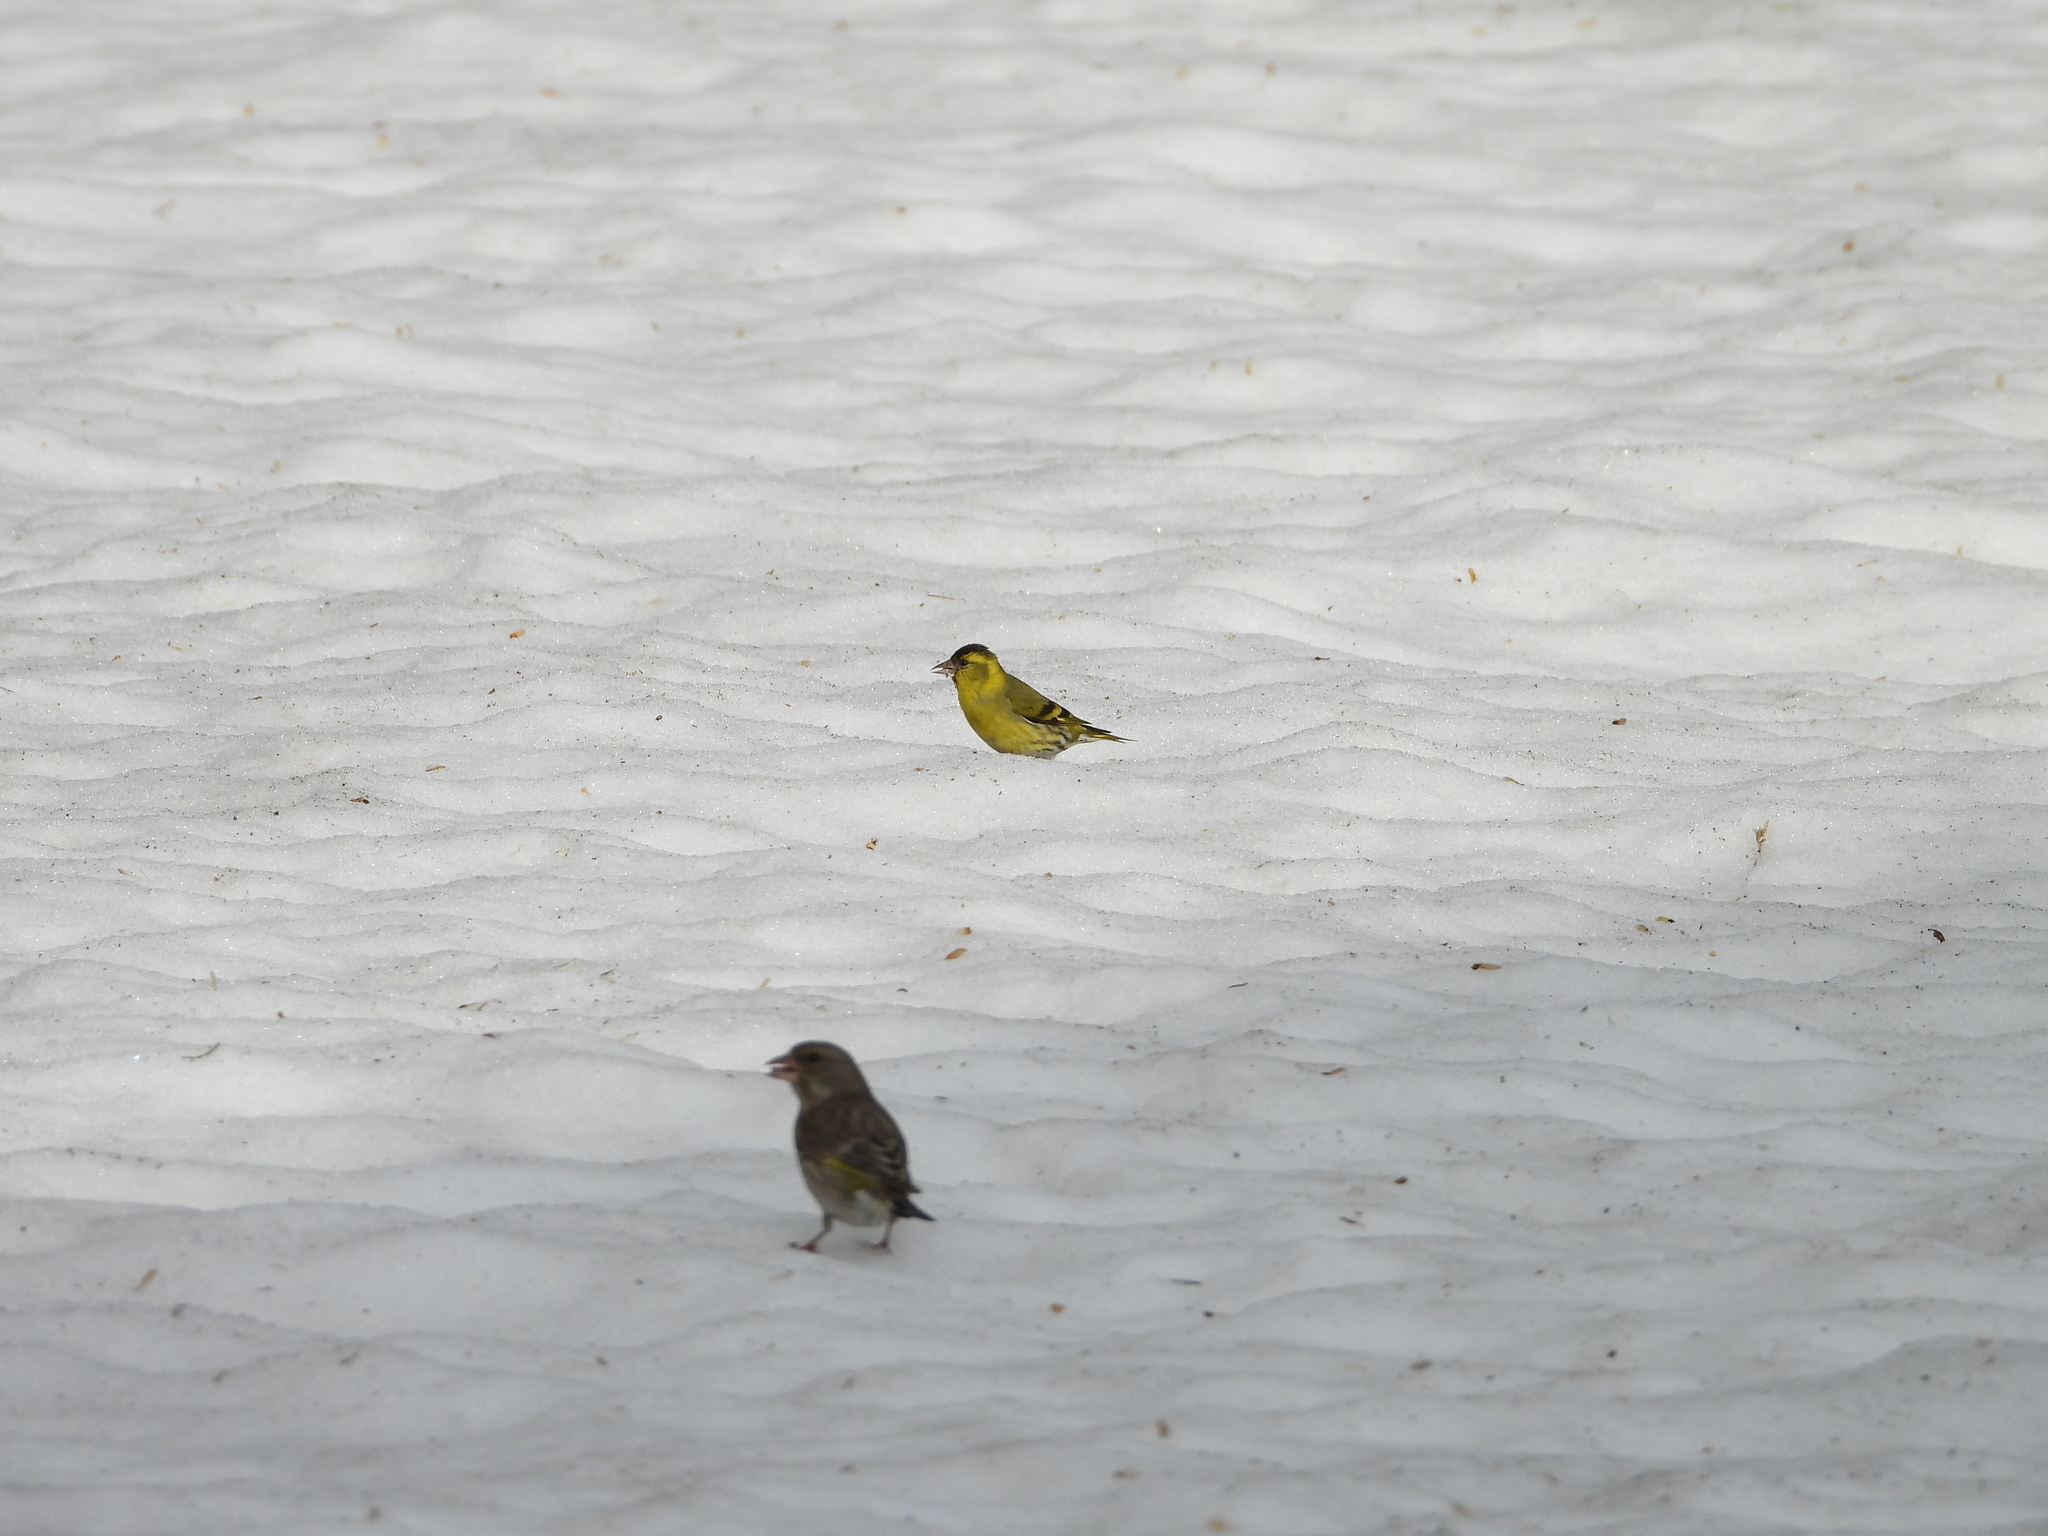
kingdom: Animalia
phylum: Chordata
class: Aves
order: Passeriformes
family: Fringillidae
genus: Spinus
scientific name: Spinus spinus
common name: Eurasian siskin
